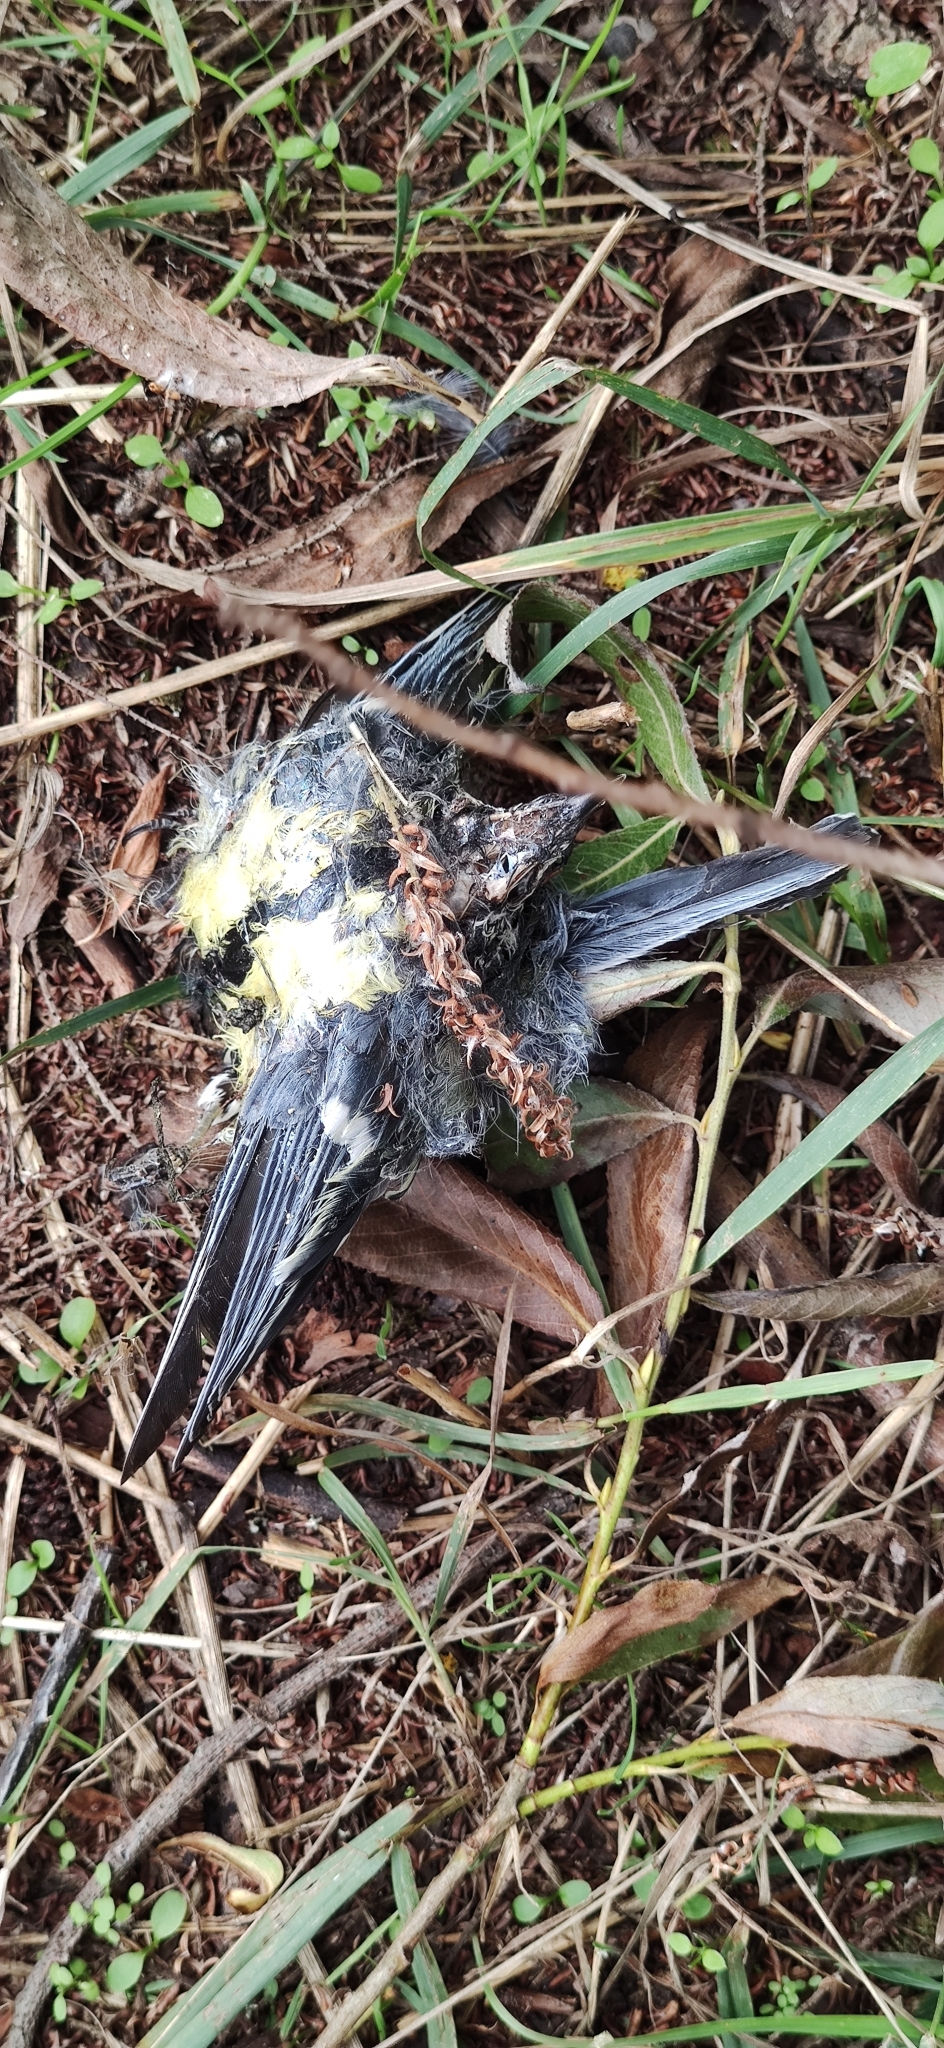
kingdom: Animalia
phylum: Chordata
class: Aves
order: Passeriformes
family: Paridae
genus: Parus
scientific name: Parus major
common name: Great tit
